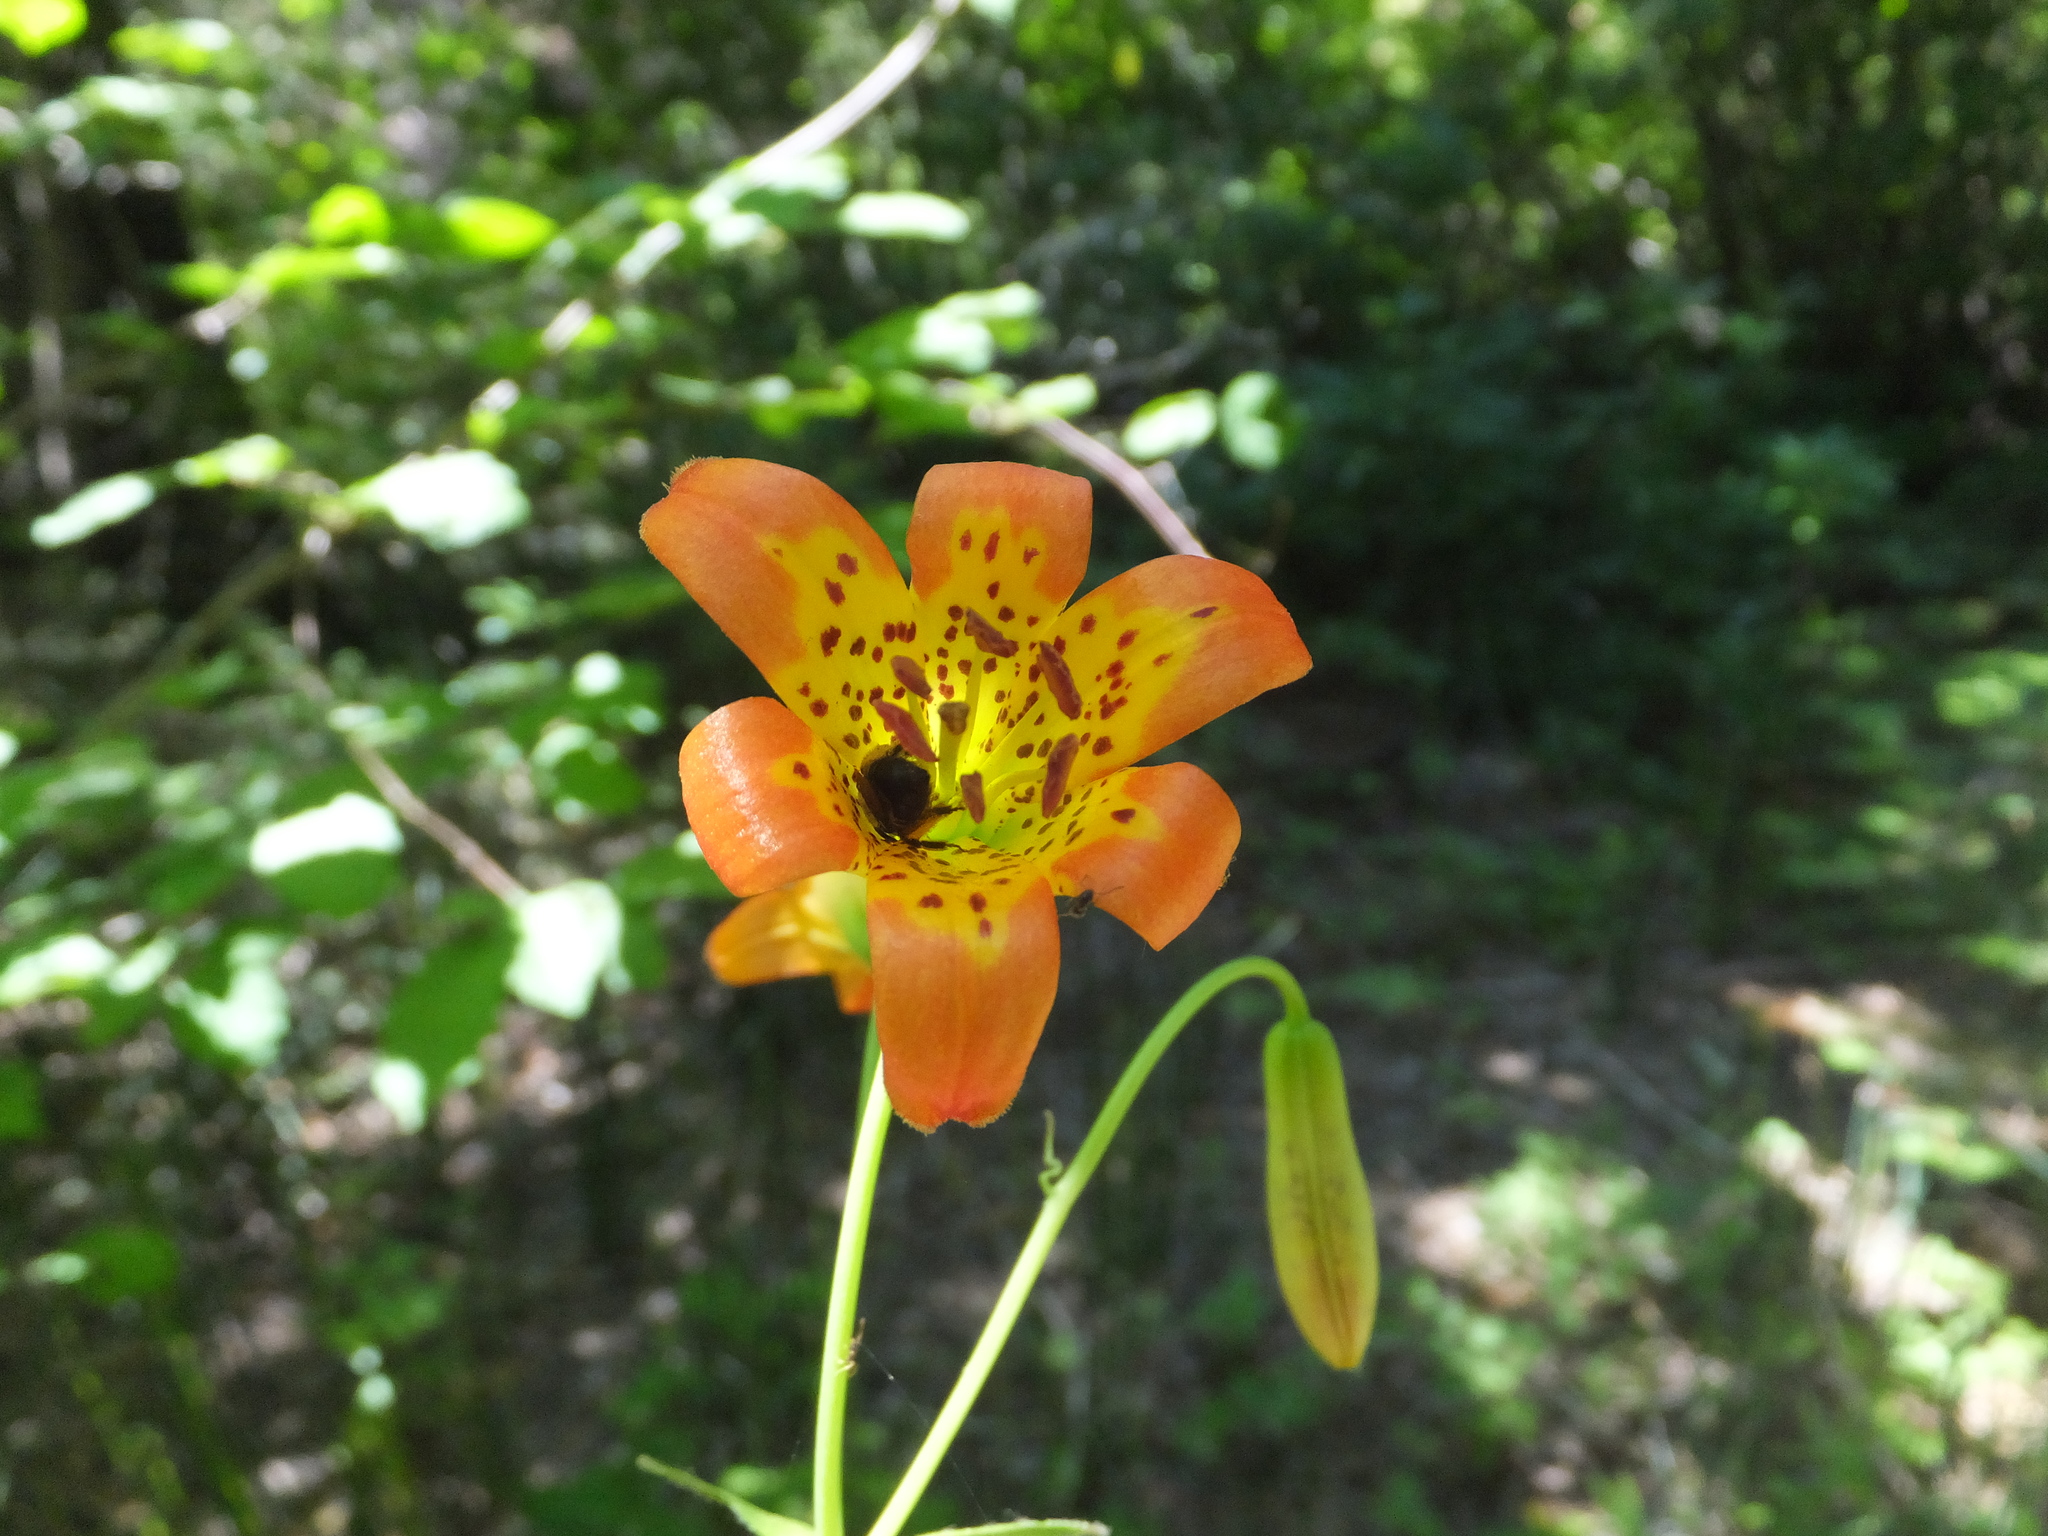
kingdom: Plantae
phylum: Tracheophyta
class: Liliopsida
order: Liliales
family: Liliaceae
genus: Lilium
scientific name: Lilium parvum
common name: Alpine lily
